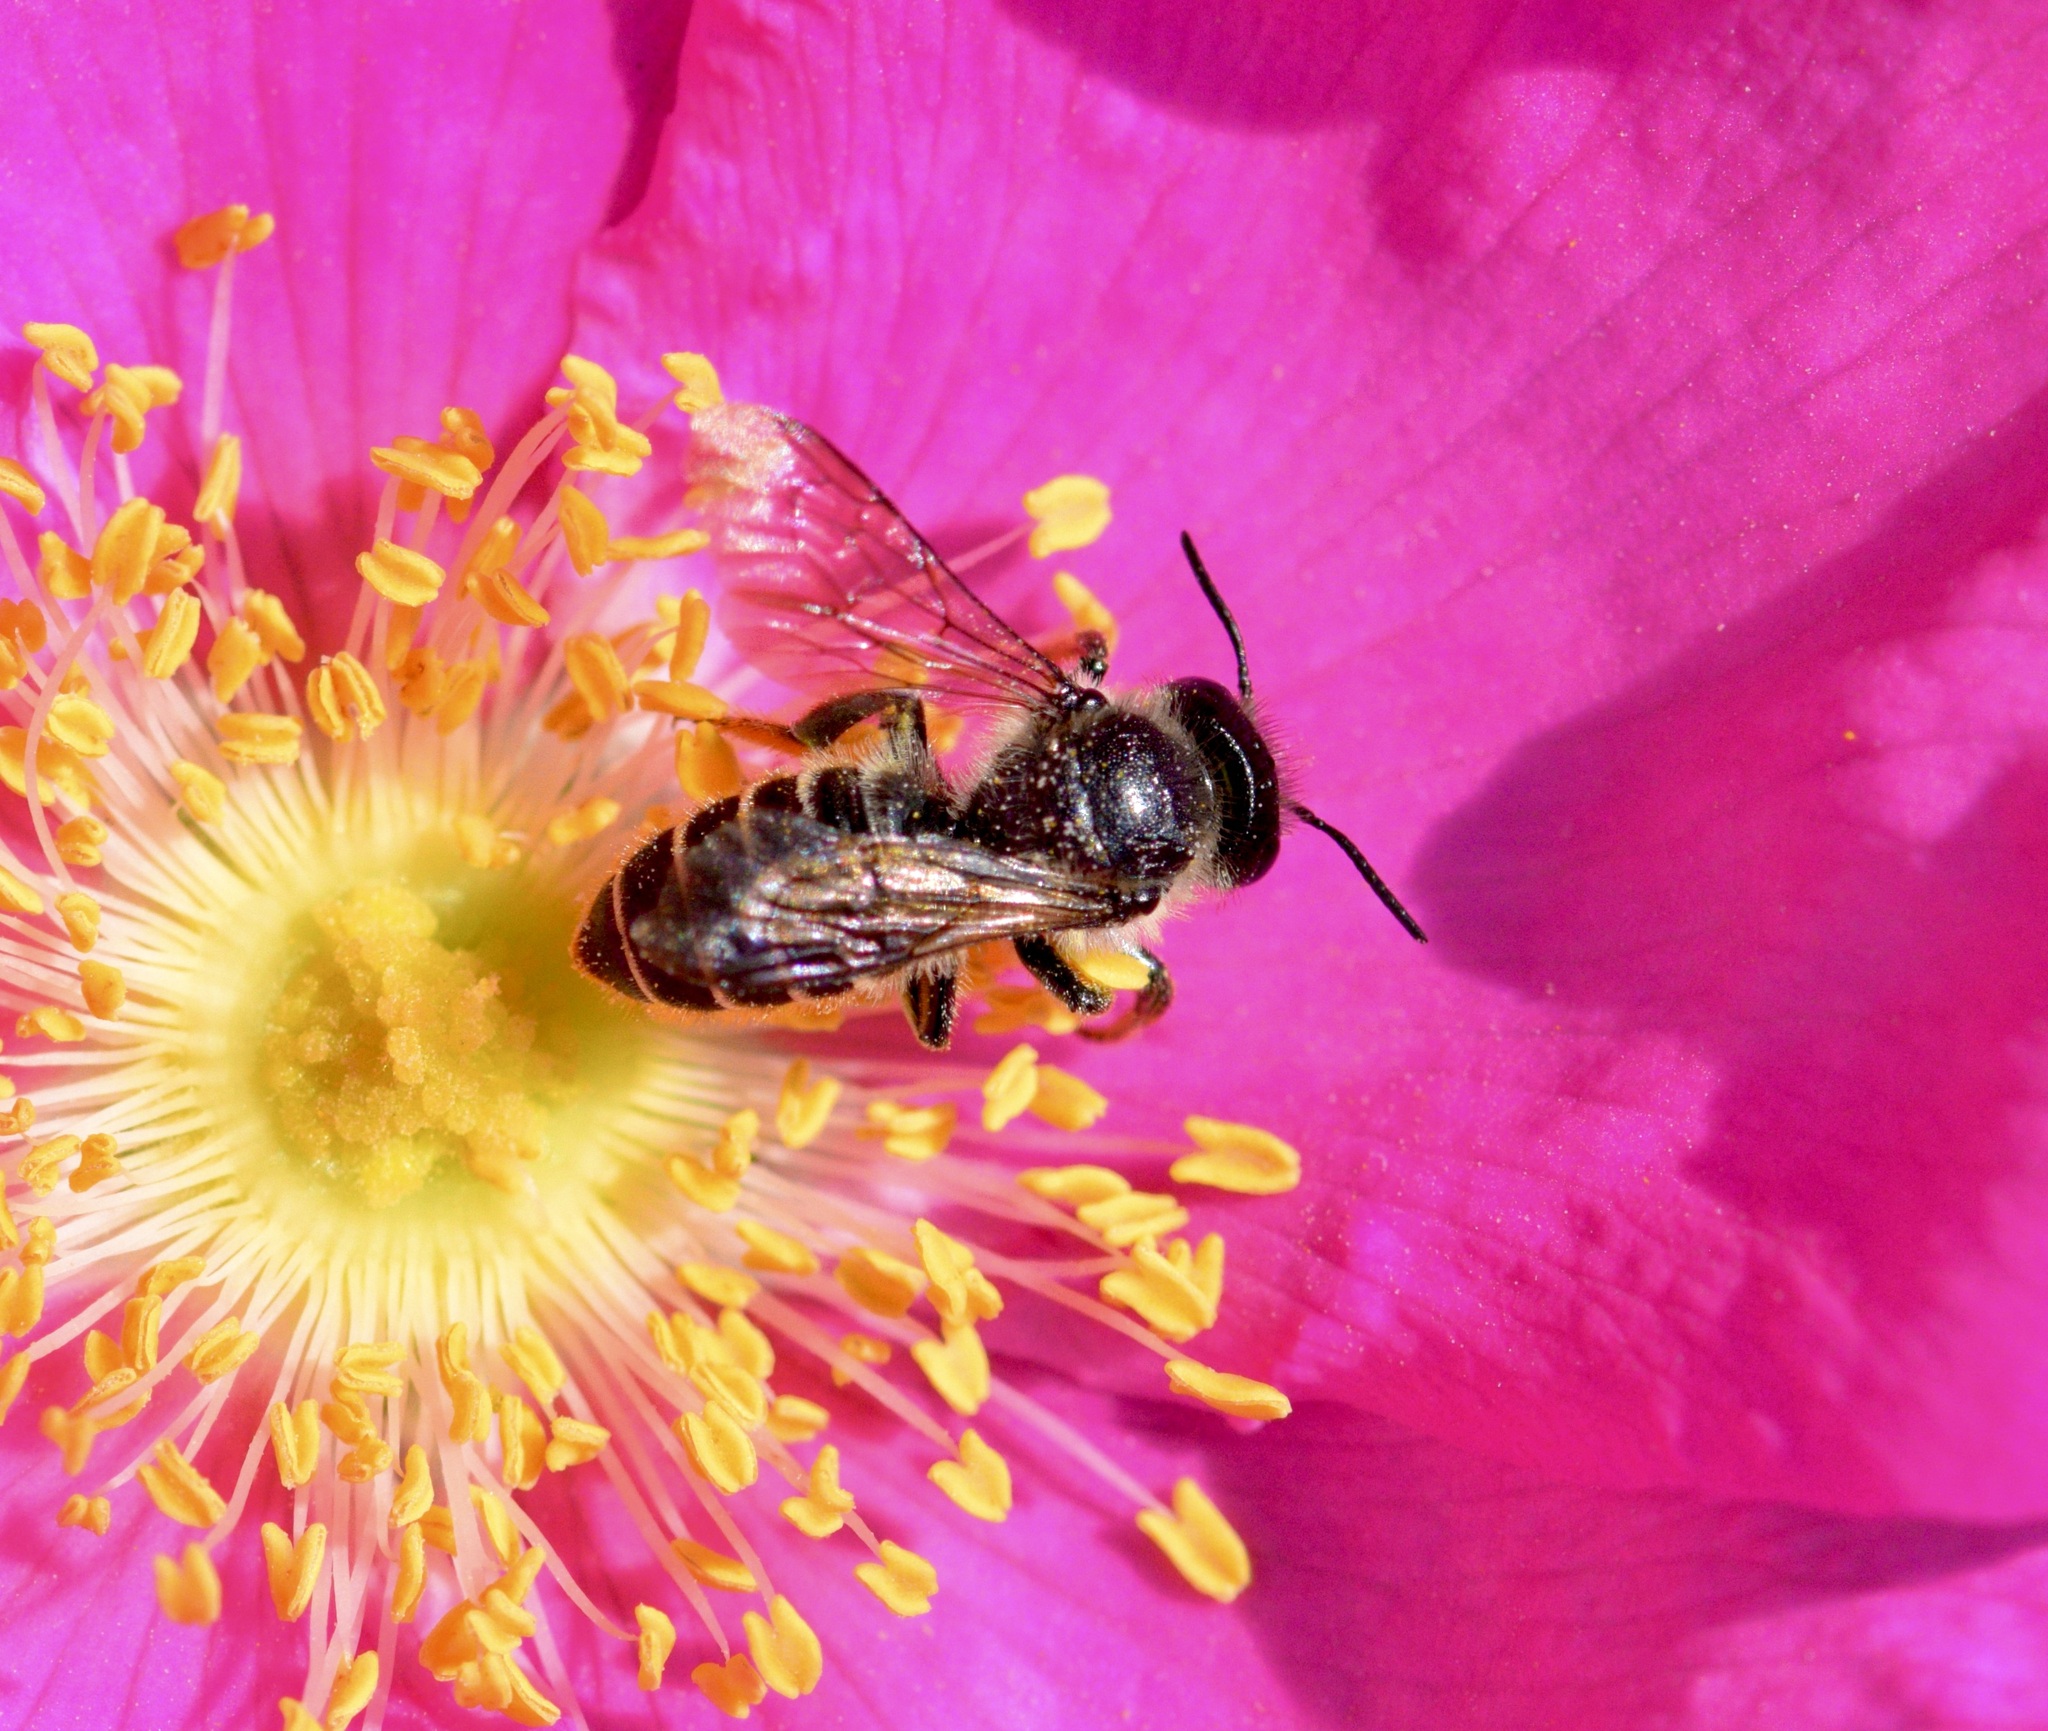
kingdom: Animalia
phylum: Arthropoda
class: Insecta
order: Hymenoptera
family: Megachilidae
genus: Megachile
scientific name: Megachile relativa
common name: Golden-tailed leafcutter
